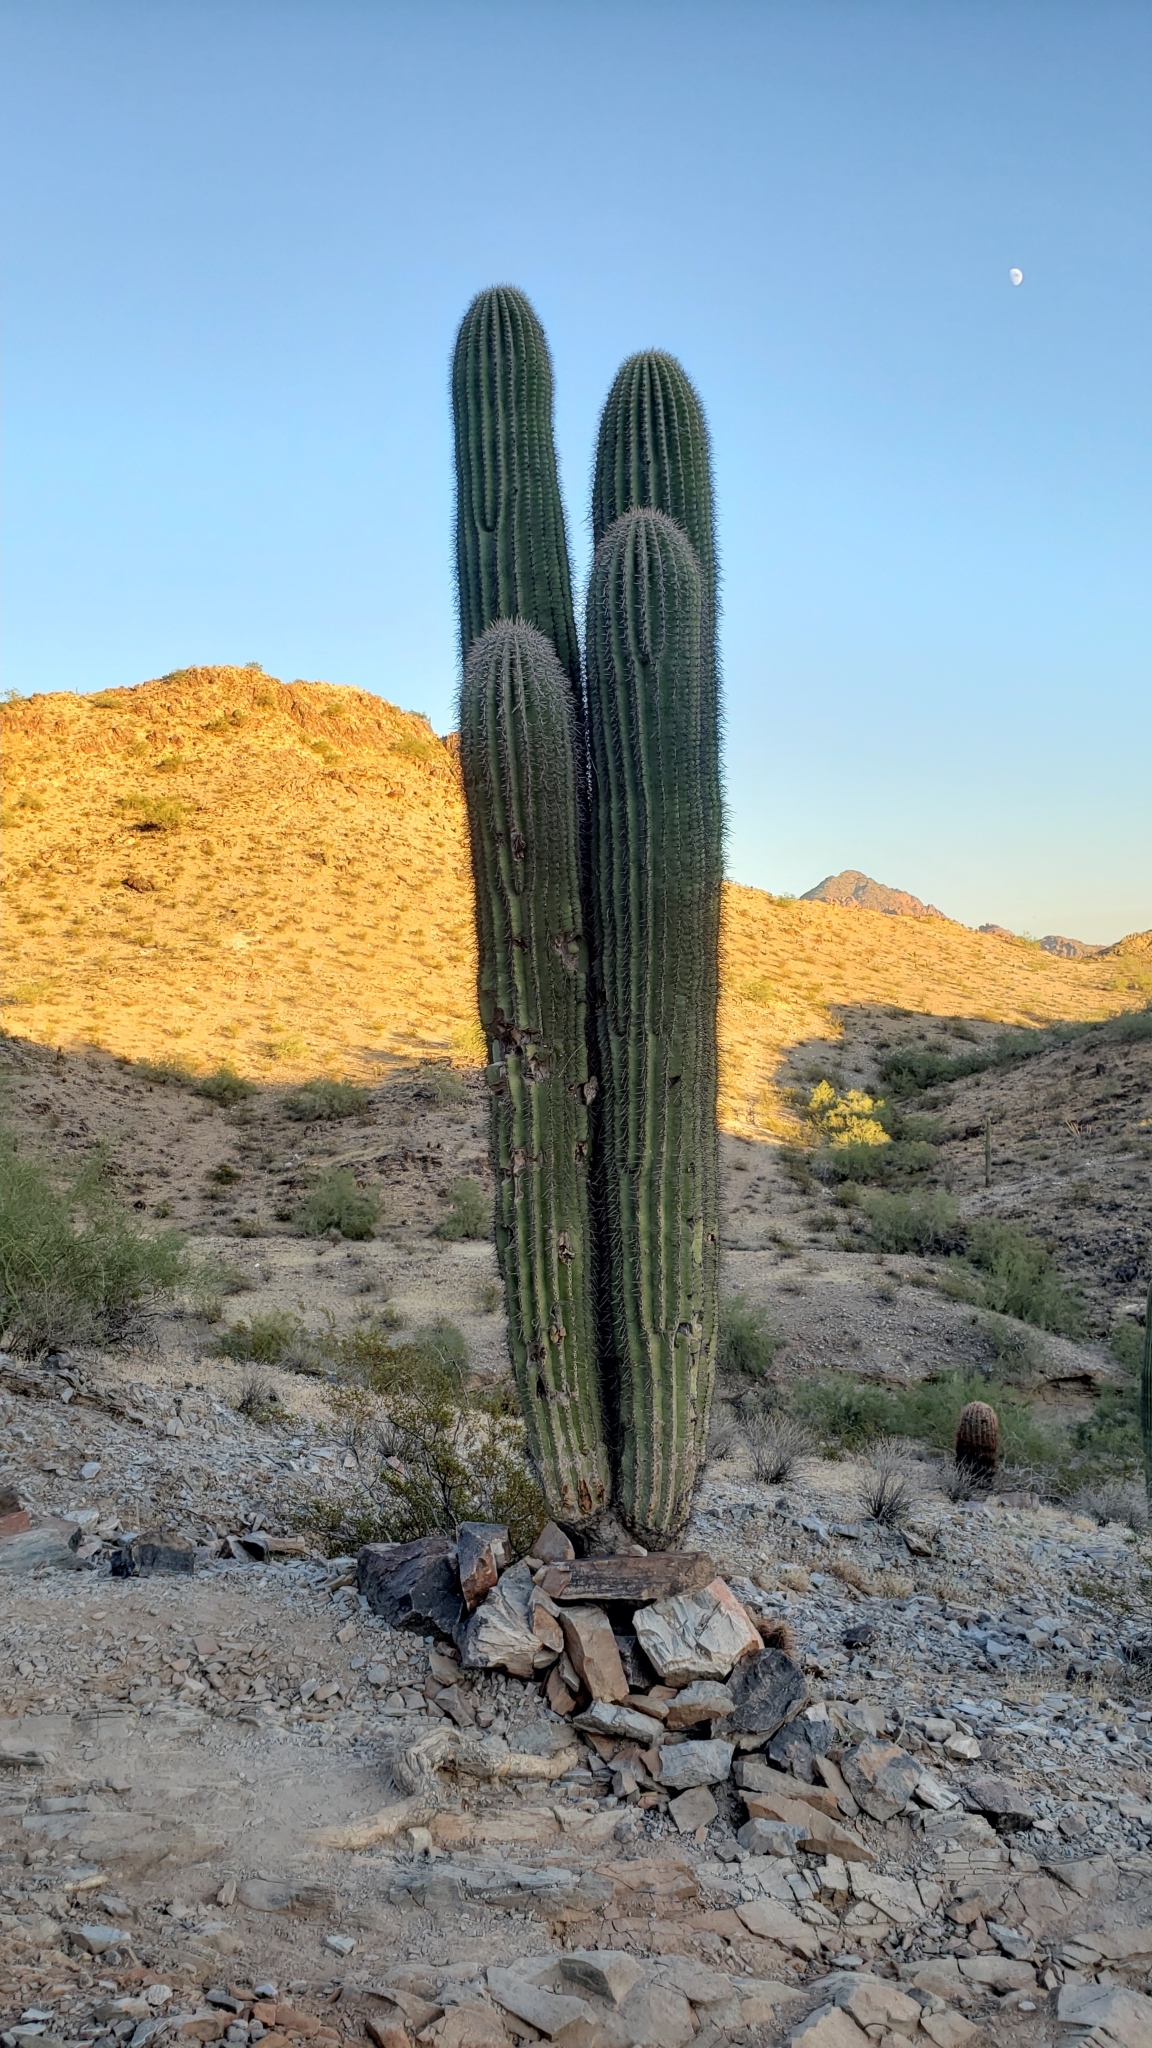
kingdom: Plantae
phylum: Tracheophyta
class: Magnoliopsida
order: Caryophyllales
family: Cactaceae
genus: Carnegiea
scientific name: Carnegiea gigantea
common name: Saguaro
